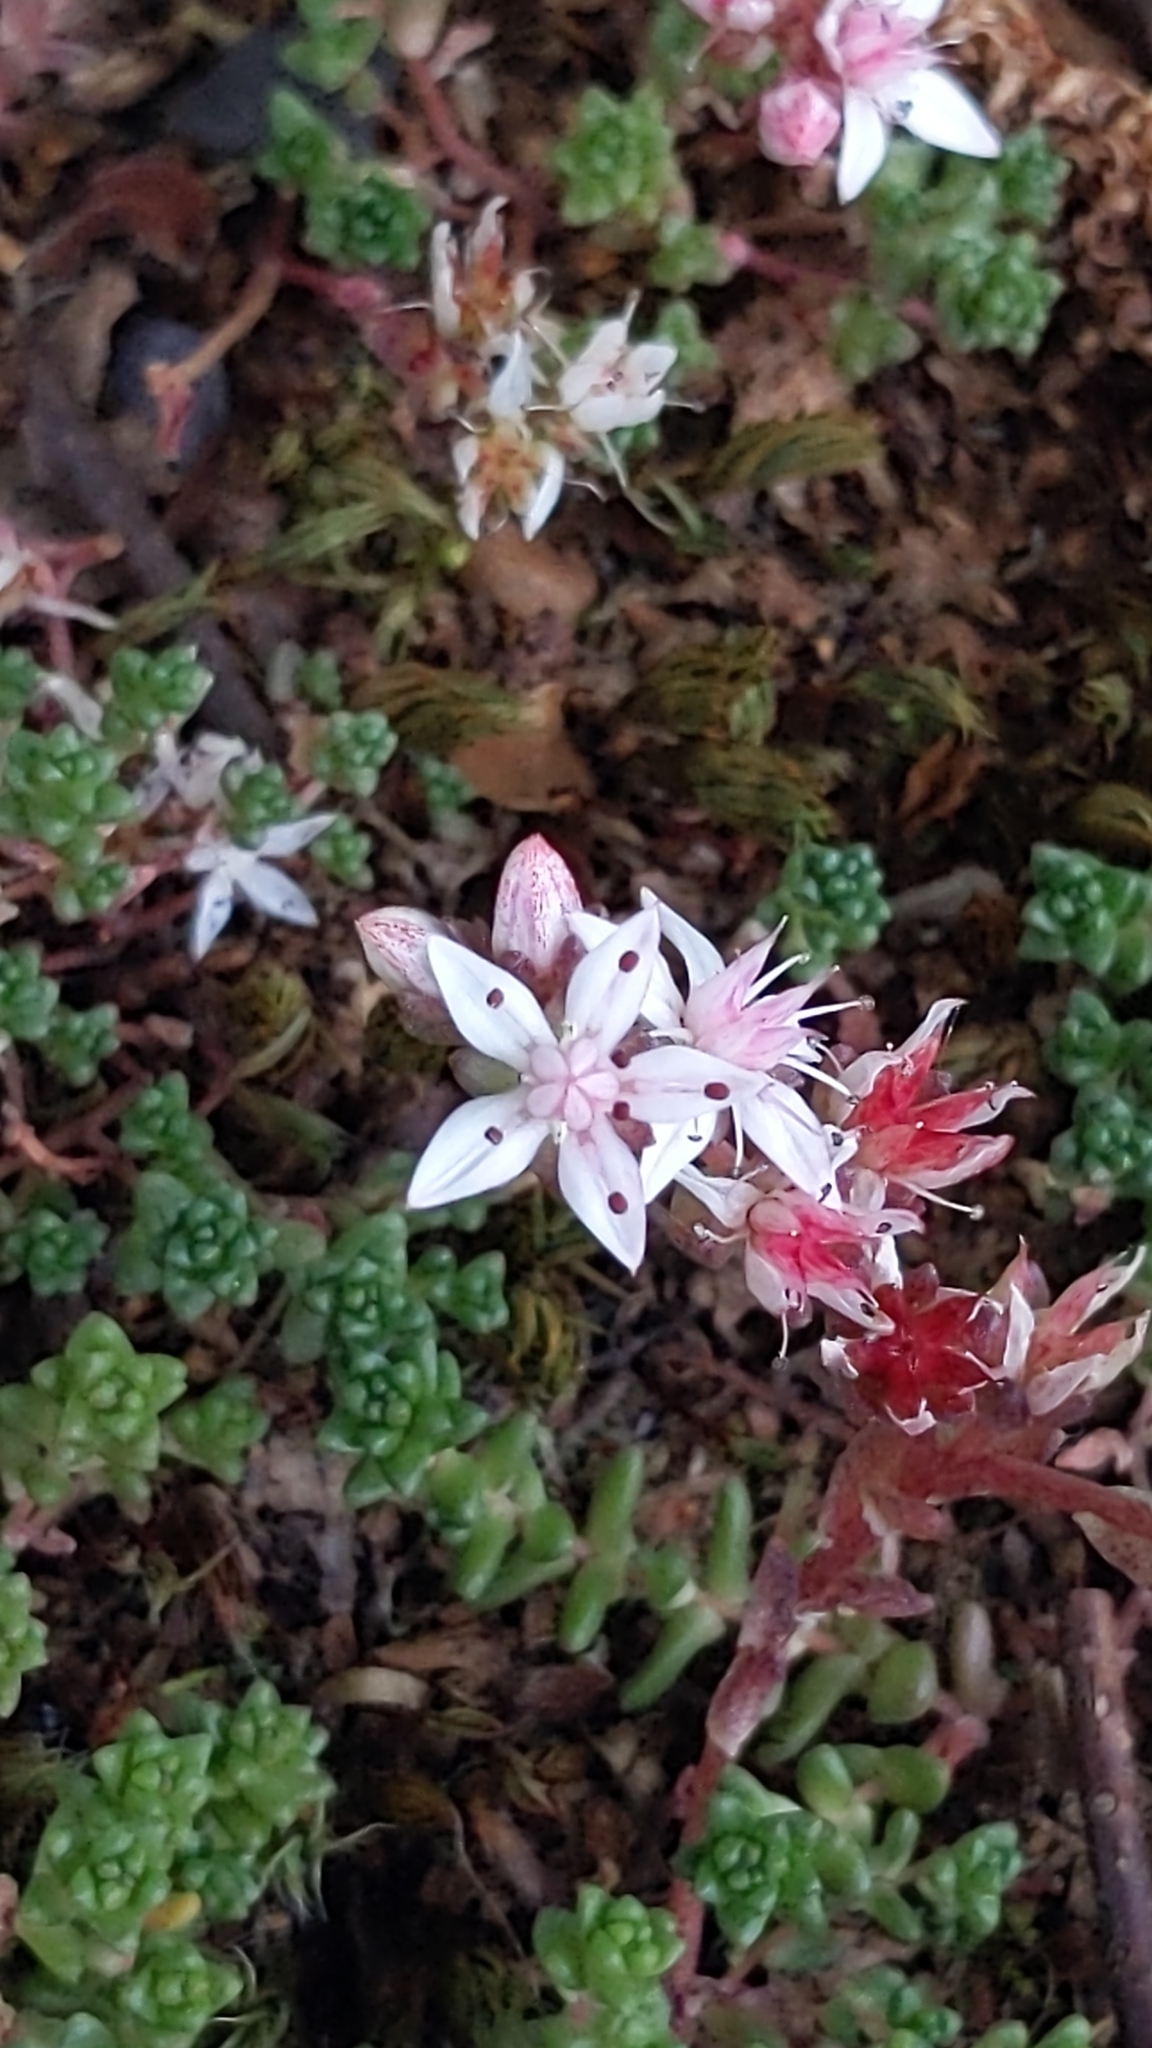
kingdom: Plantae
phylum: Tracheophyta
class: Magnoliopsida
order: Saxifragales
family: Crassulaceae
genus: Sedum
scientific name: Sedum anglicum
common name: English stonecrop
